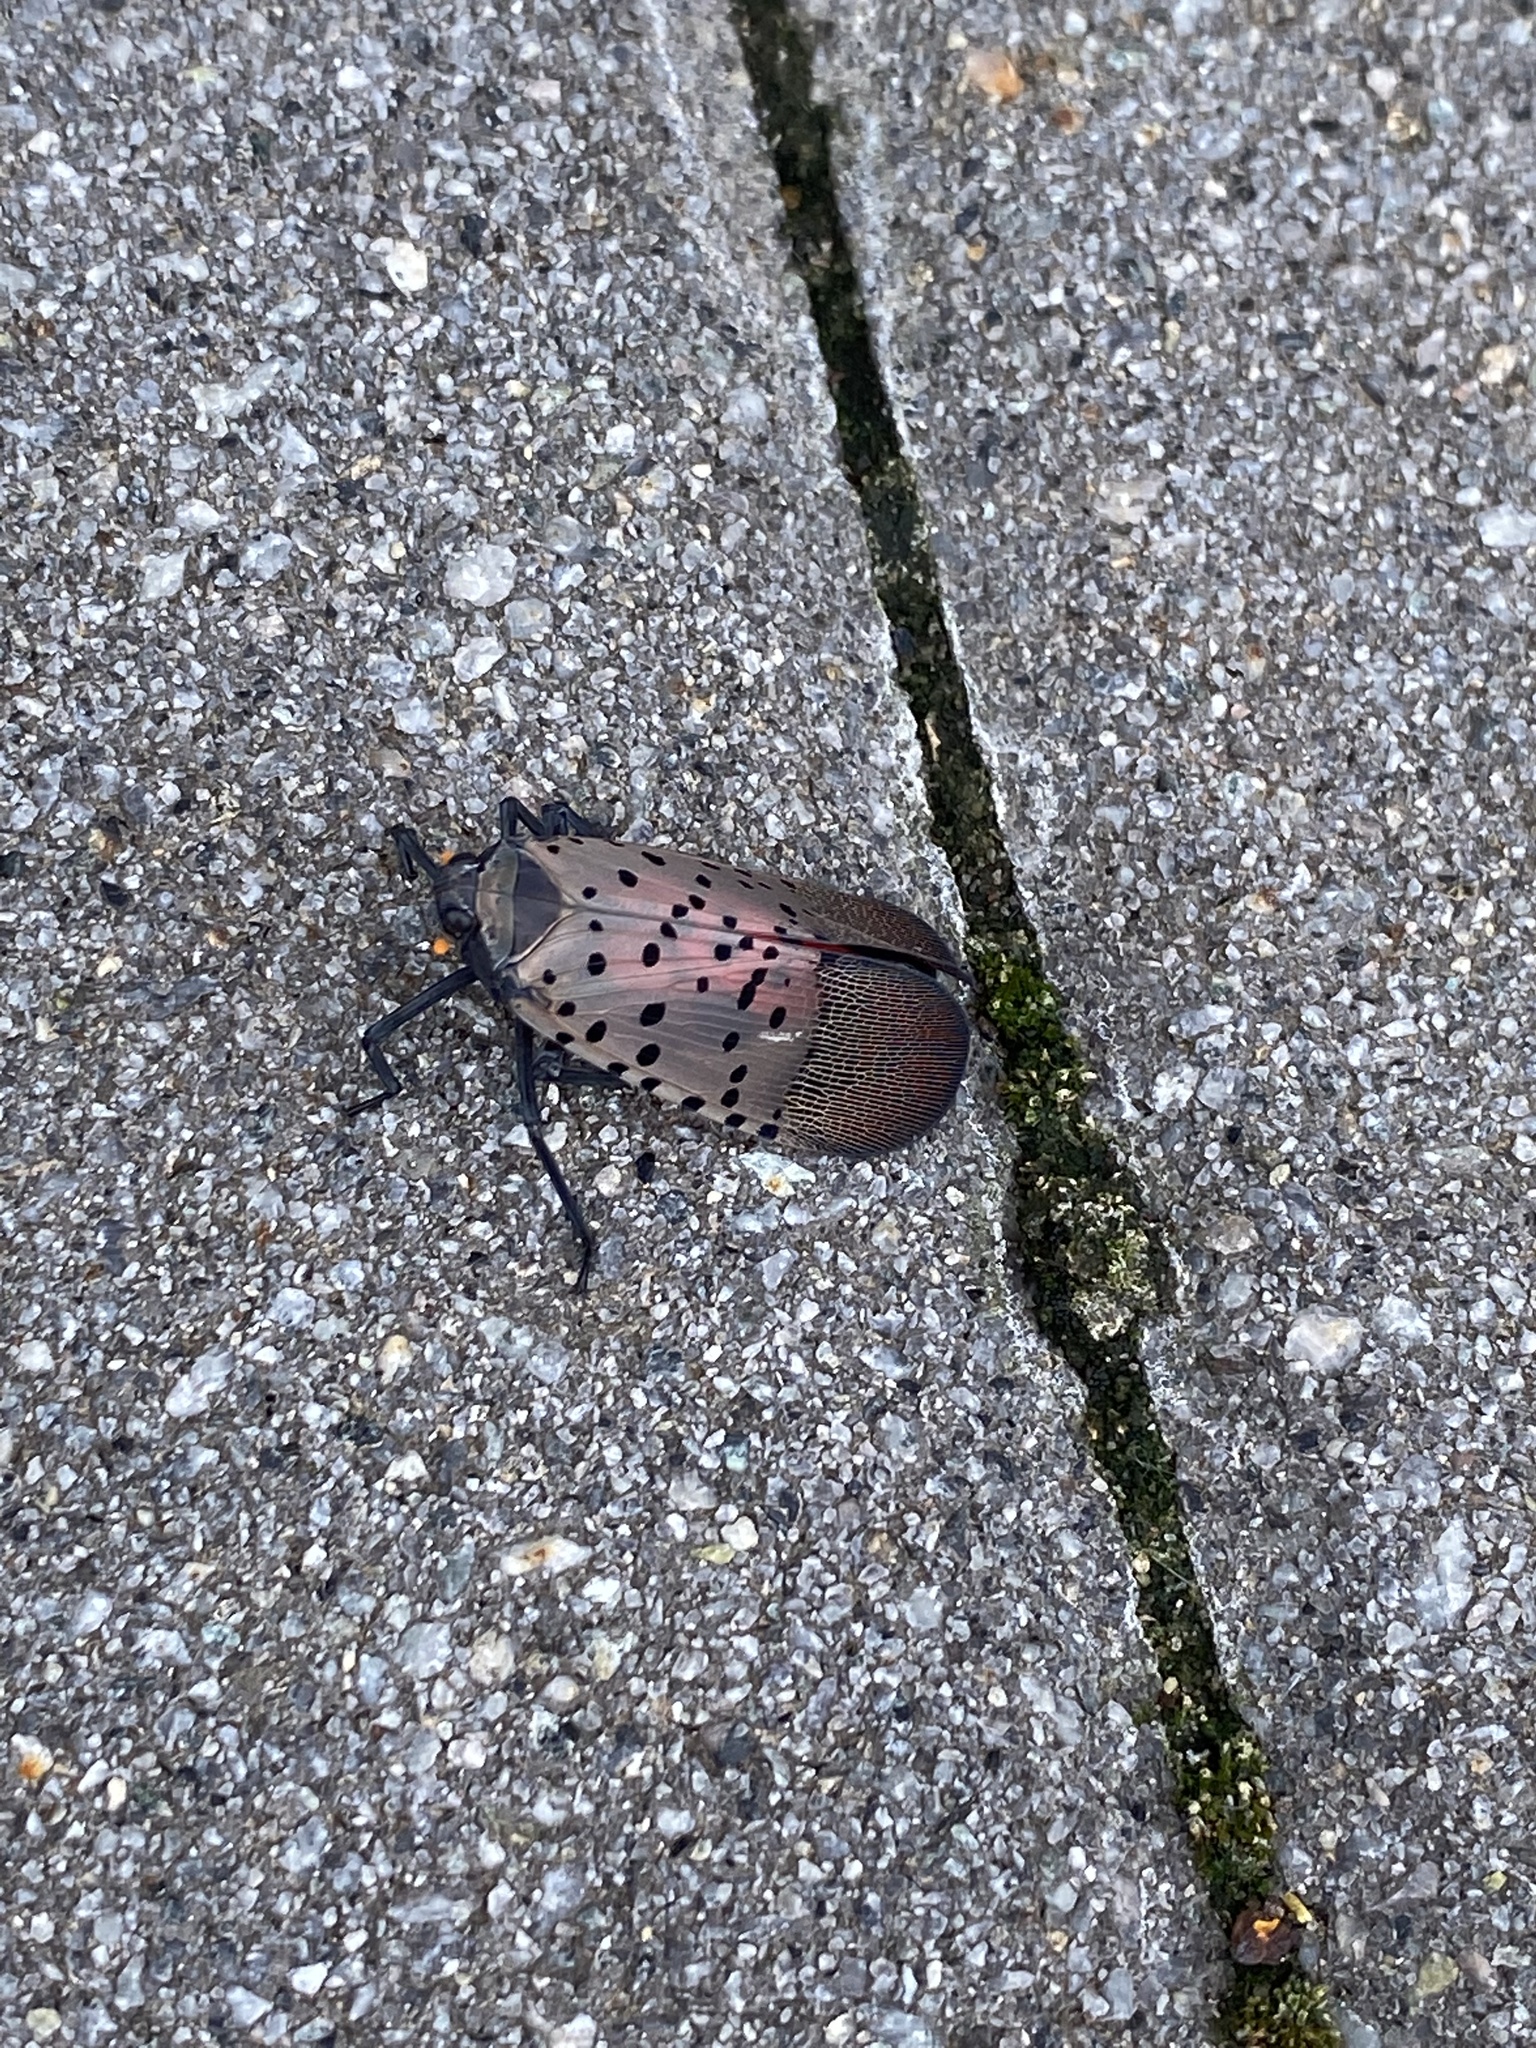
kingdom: Animalia
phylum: Arthropoda
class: Insecta
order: Hemiptera
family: Fulgoridae
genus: Lycorma
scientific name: Lycorma delicatula
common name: Spotted lanternfly
